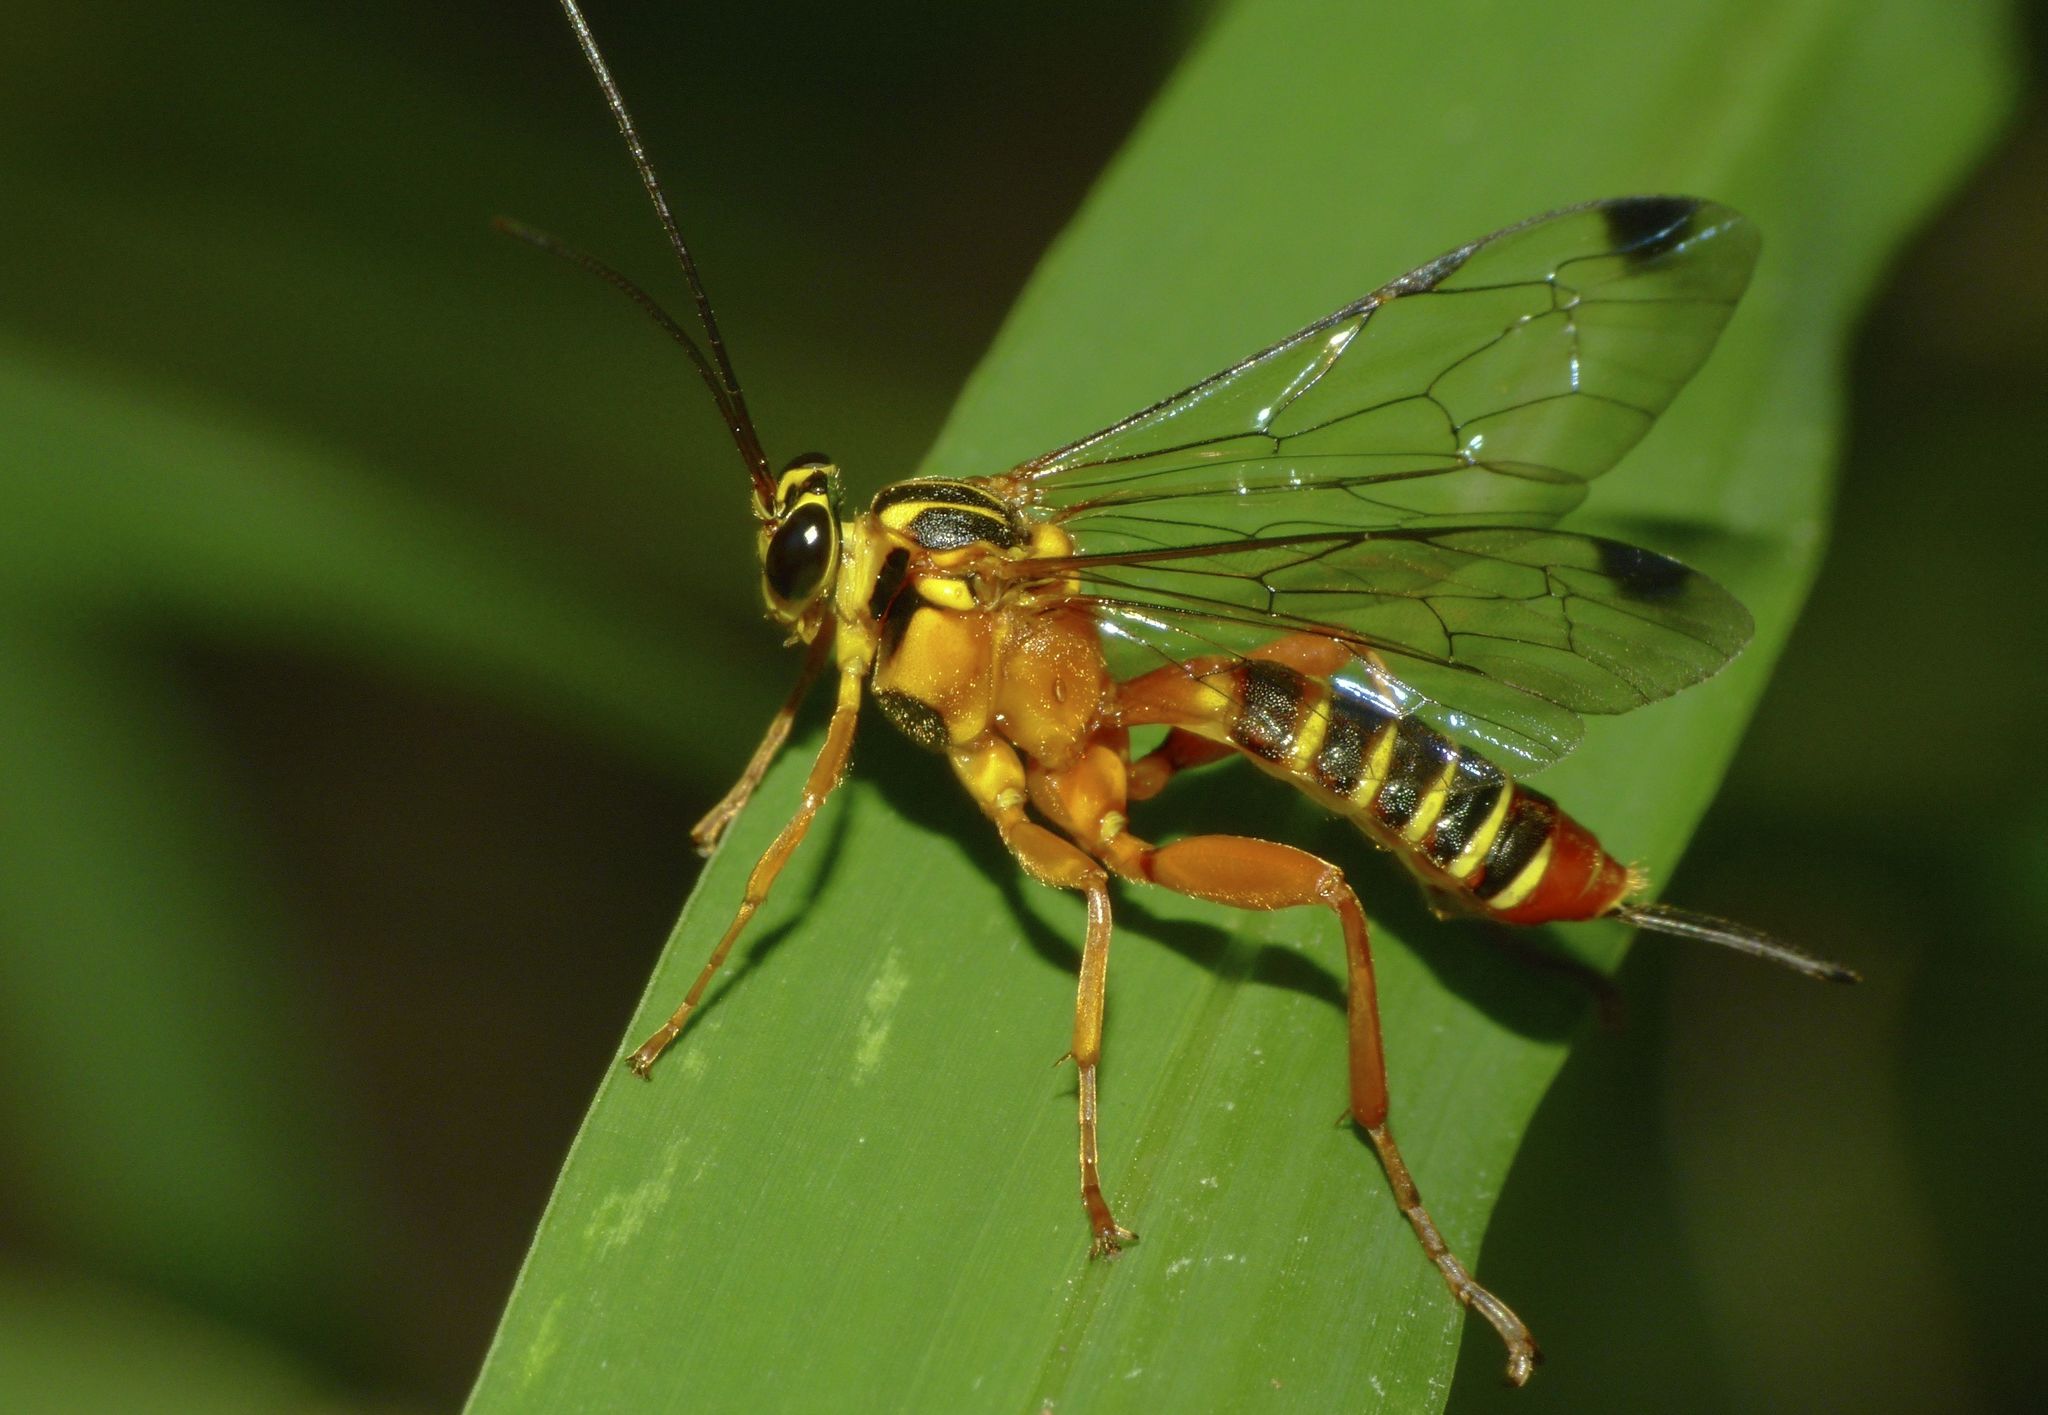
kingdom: Animalia
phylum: Arthropoda
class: Insecta
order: Hymenoptera
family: Ichneumonidae
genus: Echthromorpha
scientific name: Echthromorpha agrestoria
